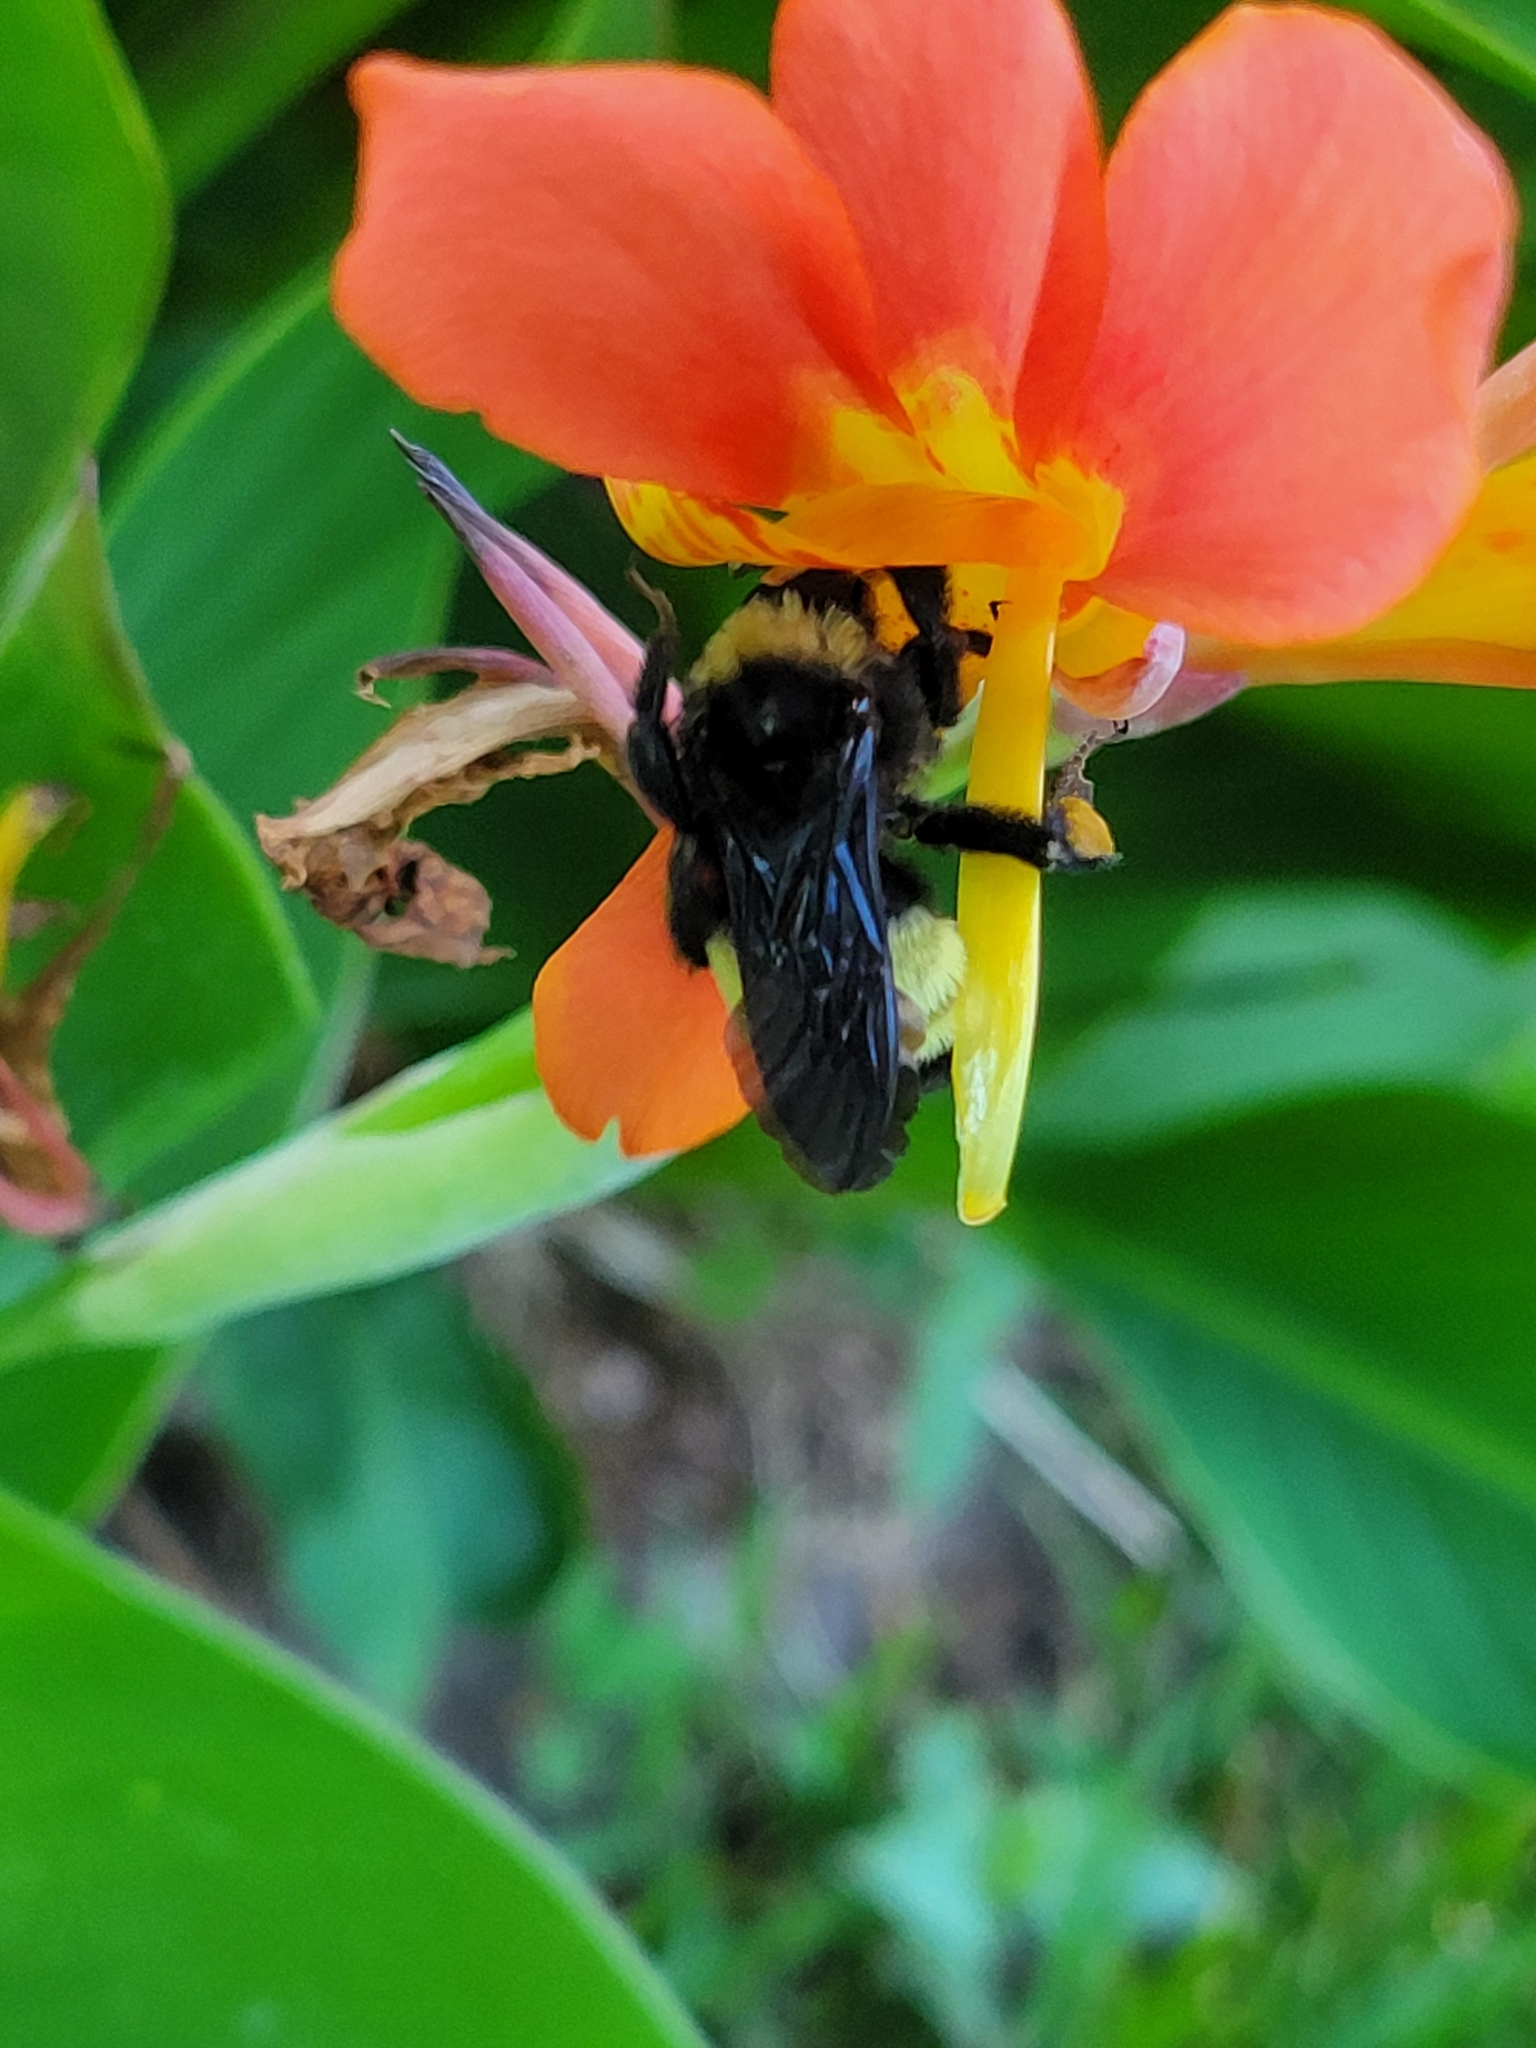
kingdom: Animalia
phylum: Arthropoda
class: Insecta
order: Hymenoptera
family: Apidae
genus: Bombus
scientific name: Bombus pensylvanicus
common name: Bumble bee
